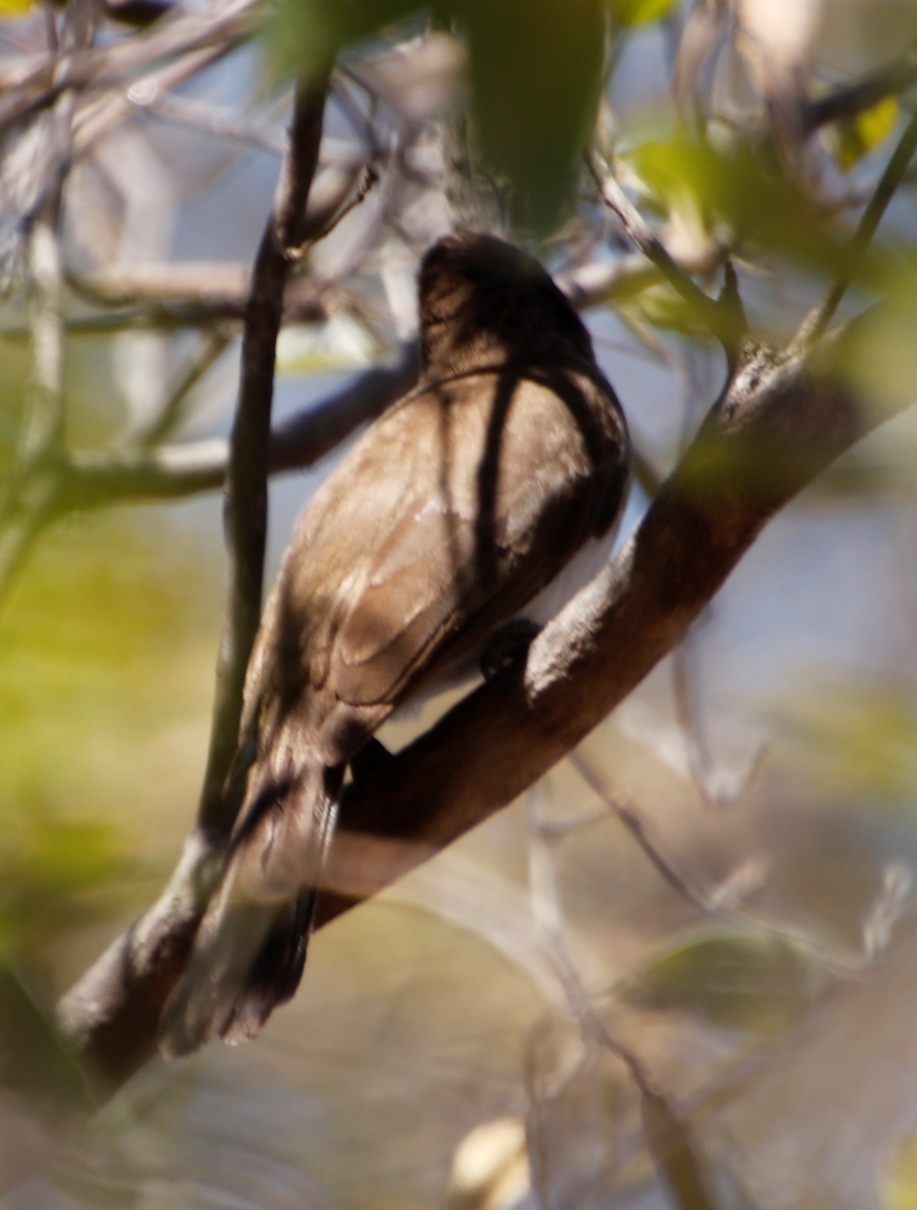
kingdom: Animalia
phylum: Chordata
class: Aves
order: Passeriformes
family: Pycnonotidae
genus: Pycnonotus
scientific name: Pycnonotus barbatus
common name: Common bulbul
